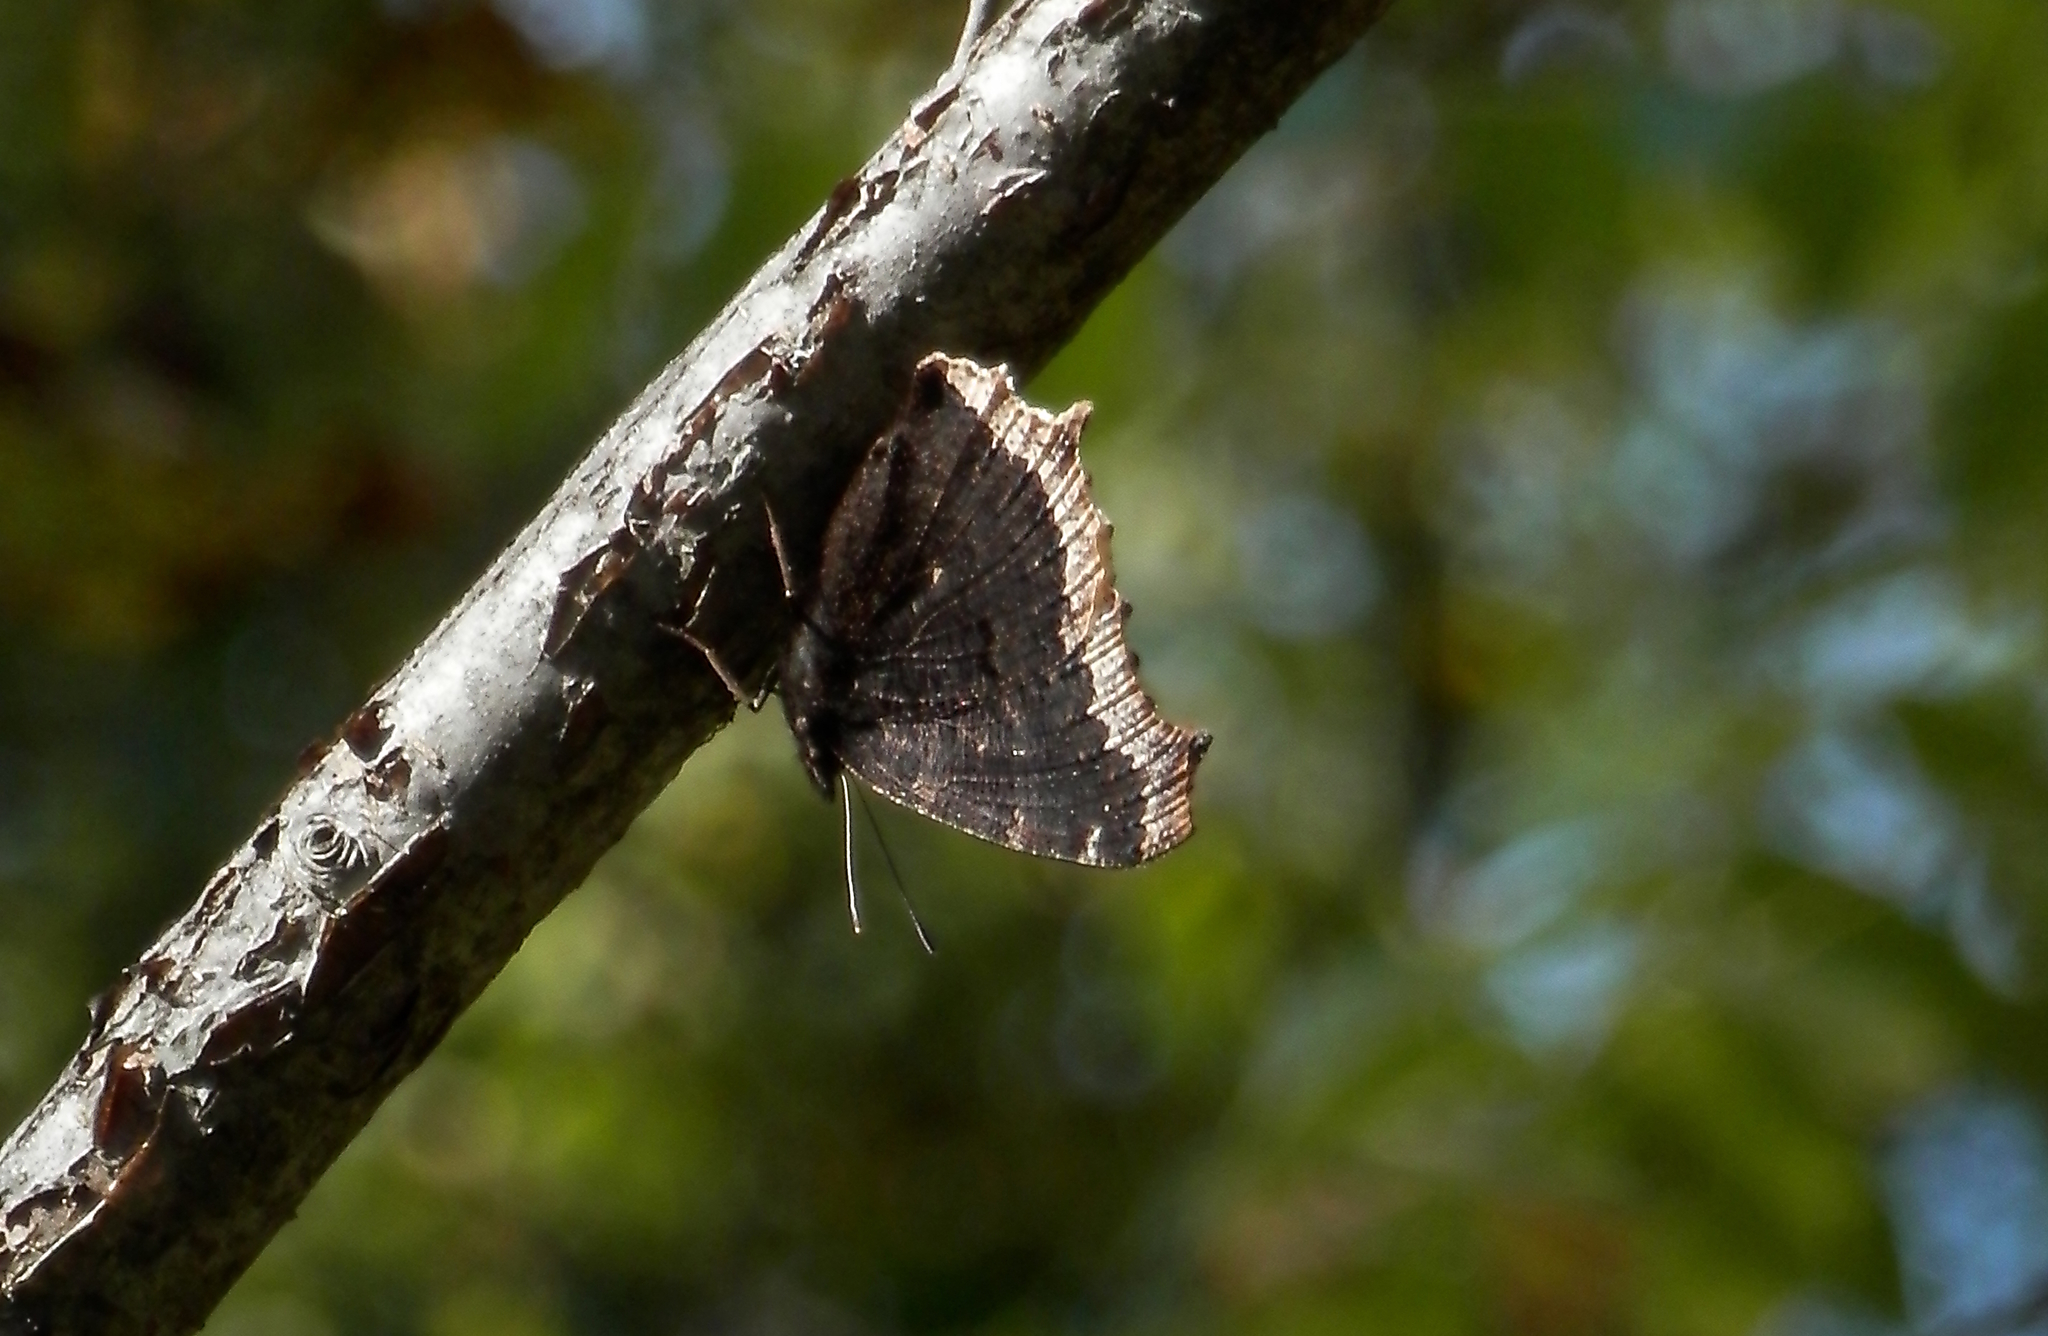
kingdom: Animalia
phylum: Arthropoda
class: Insecta
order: Lepidoptera
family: Nymphalidae
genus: Nymphalis
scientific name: Nymphalis antiopa
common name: Camberwell beauty
